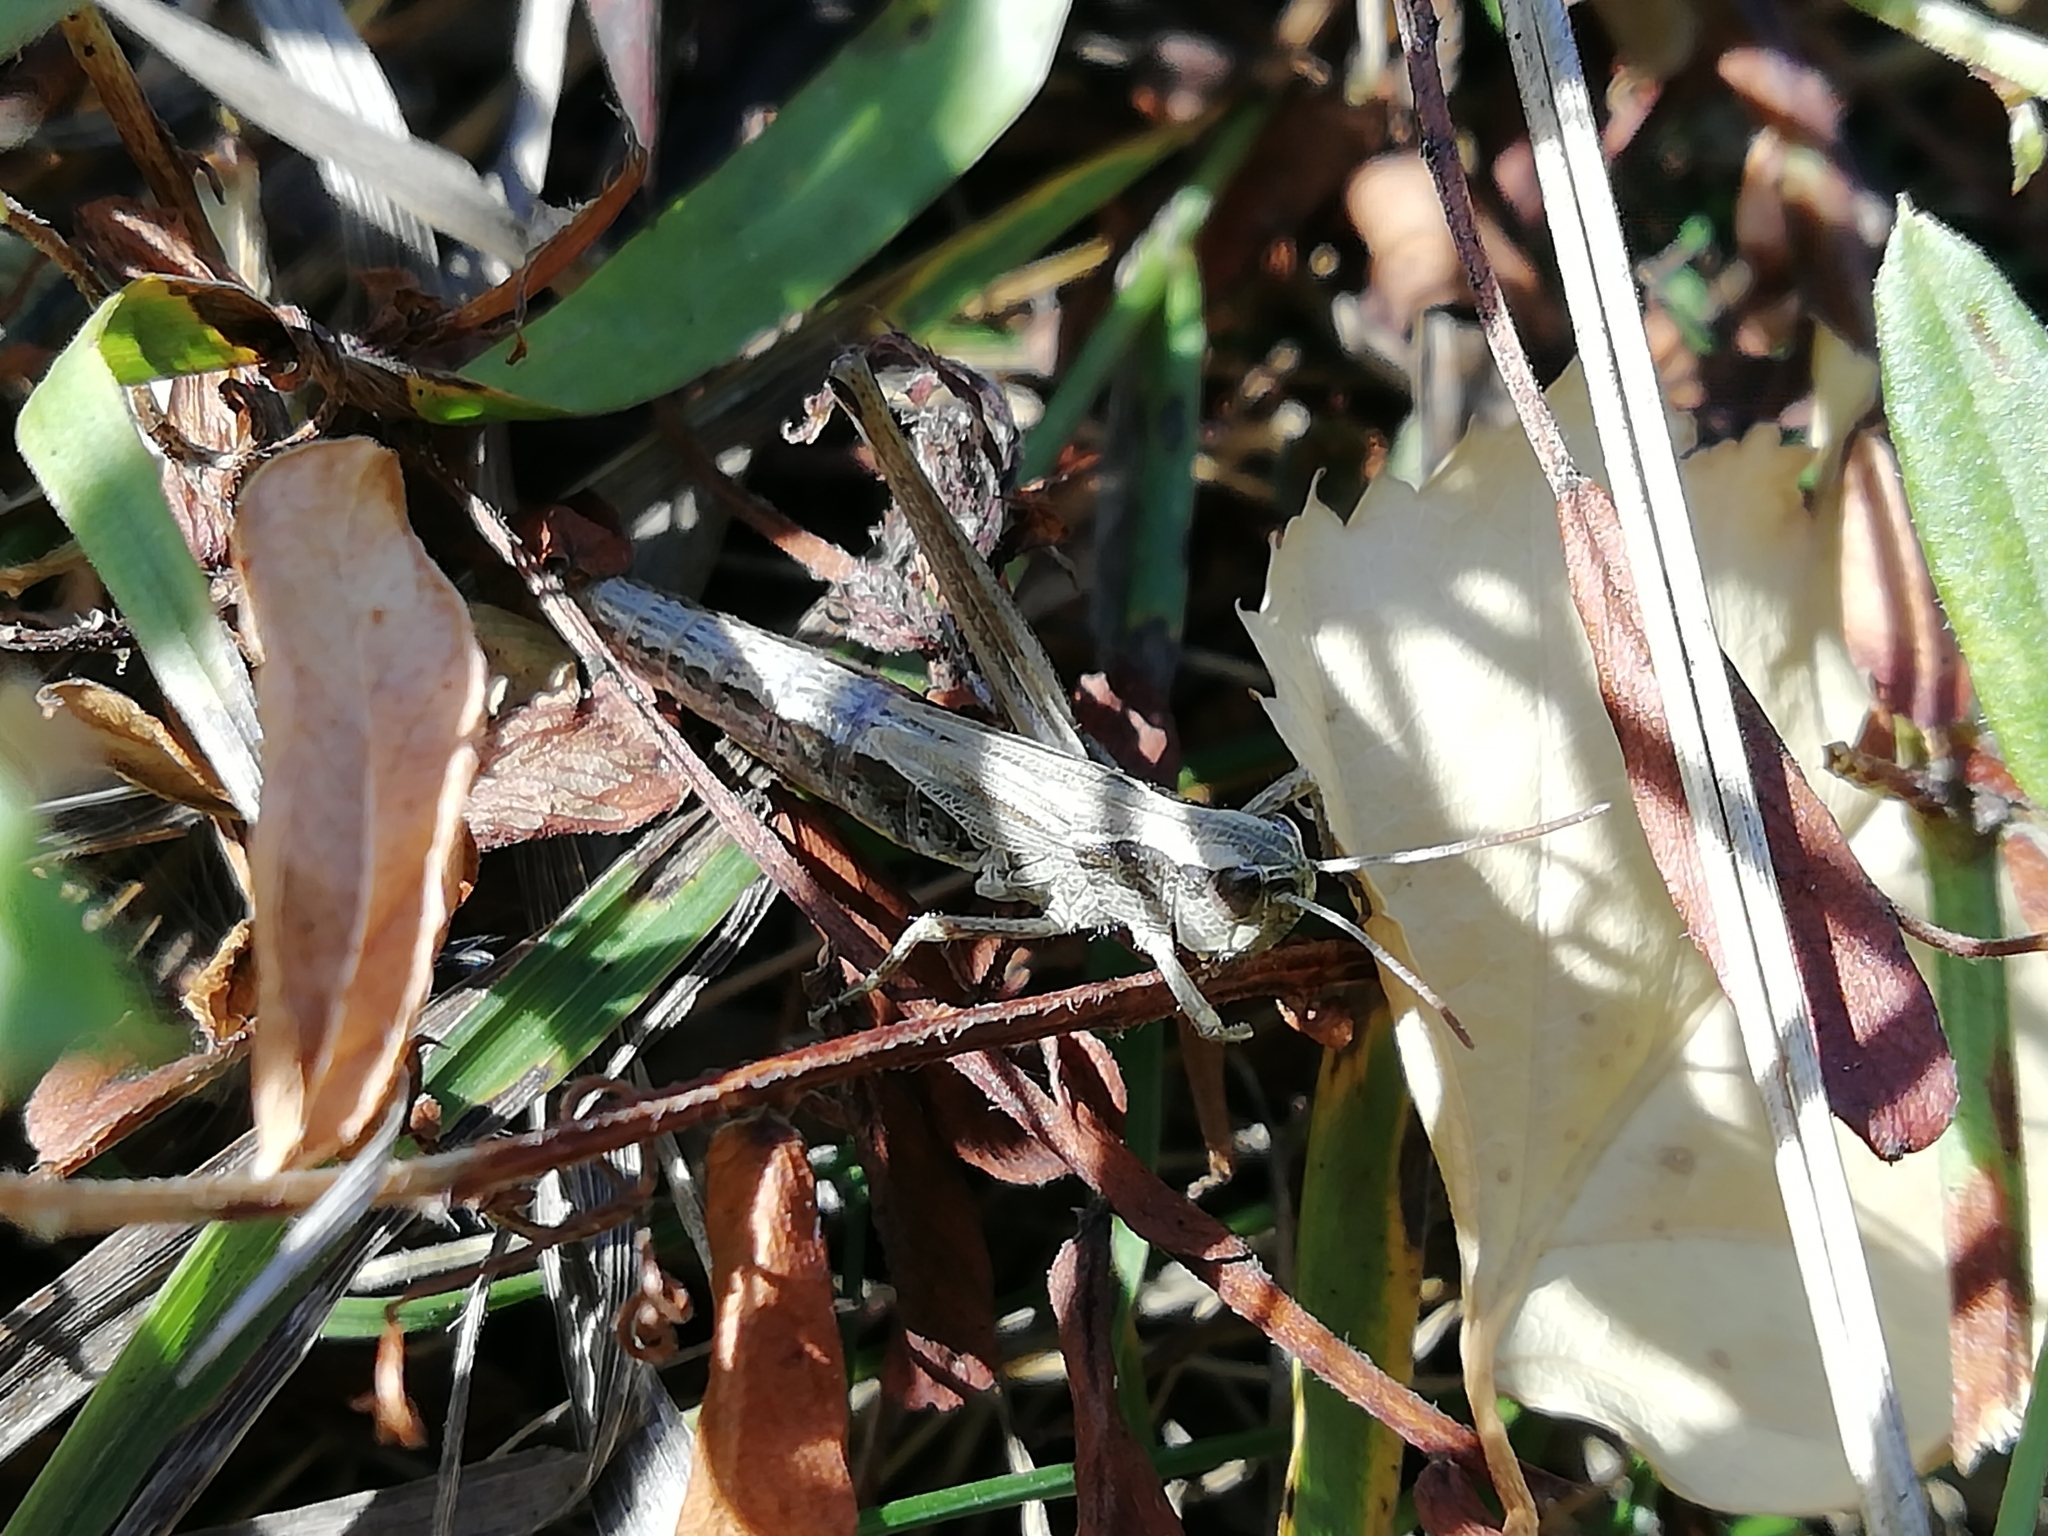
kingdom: Animalia
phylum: Arthropoda
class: Insecta
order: Orthoptera
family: Acrididae
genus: Pseudochorthippus
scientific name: Pseudochorthippus parallelus
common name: Meadow grasshopper
